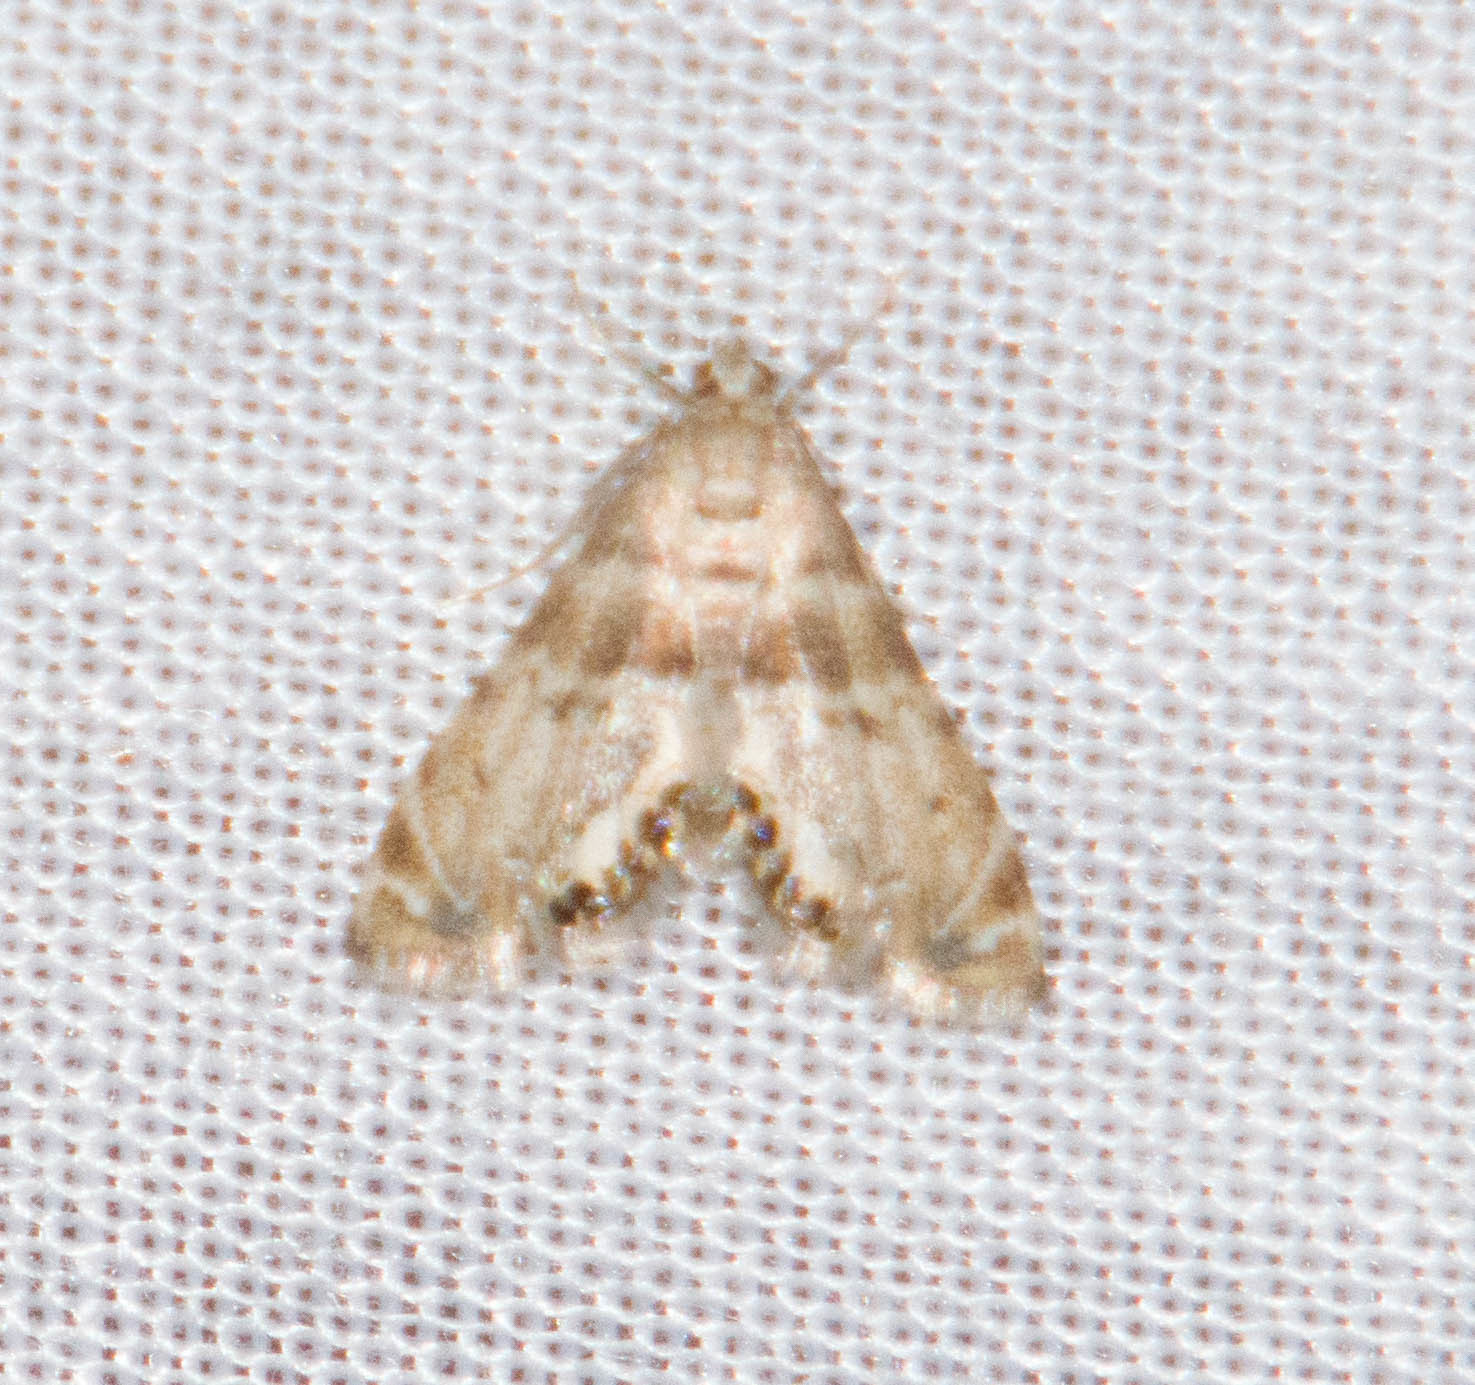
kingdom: Animalia
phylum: Arthropoda
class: Insecta
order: Lepidoptera
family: Crambidae
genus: Petrophila
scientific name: Petrophila fulicalis
